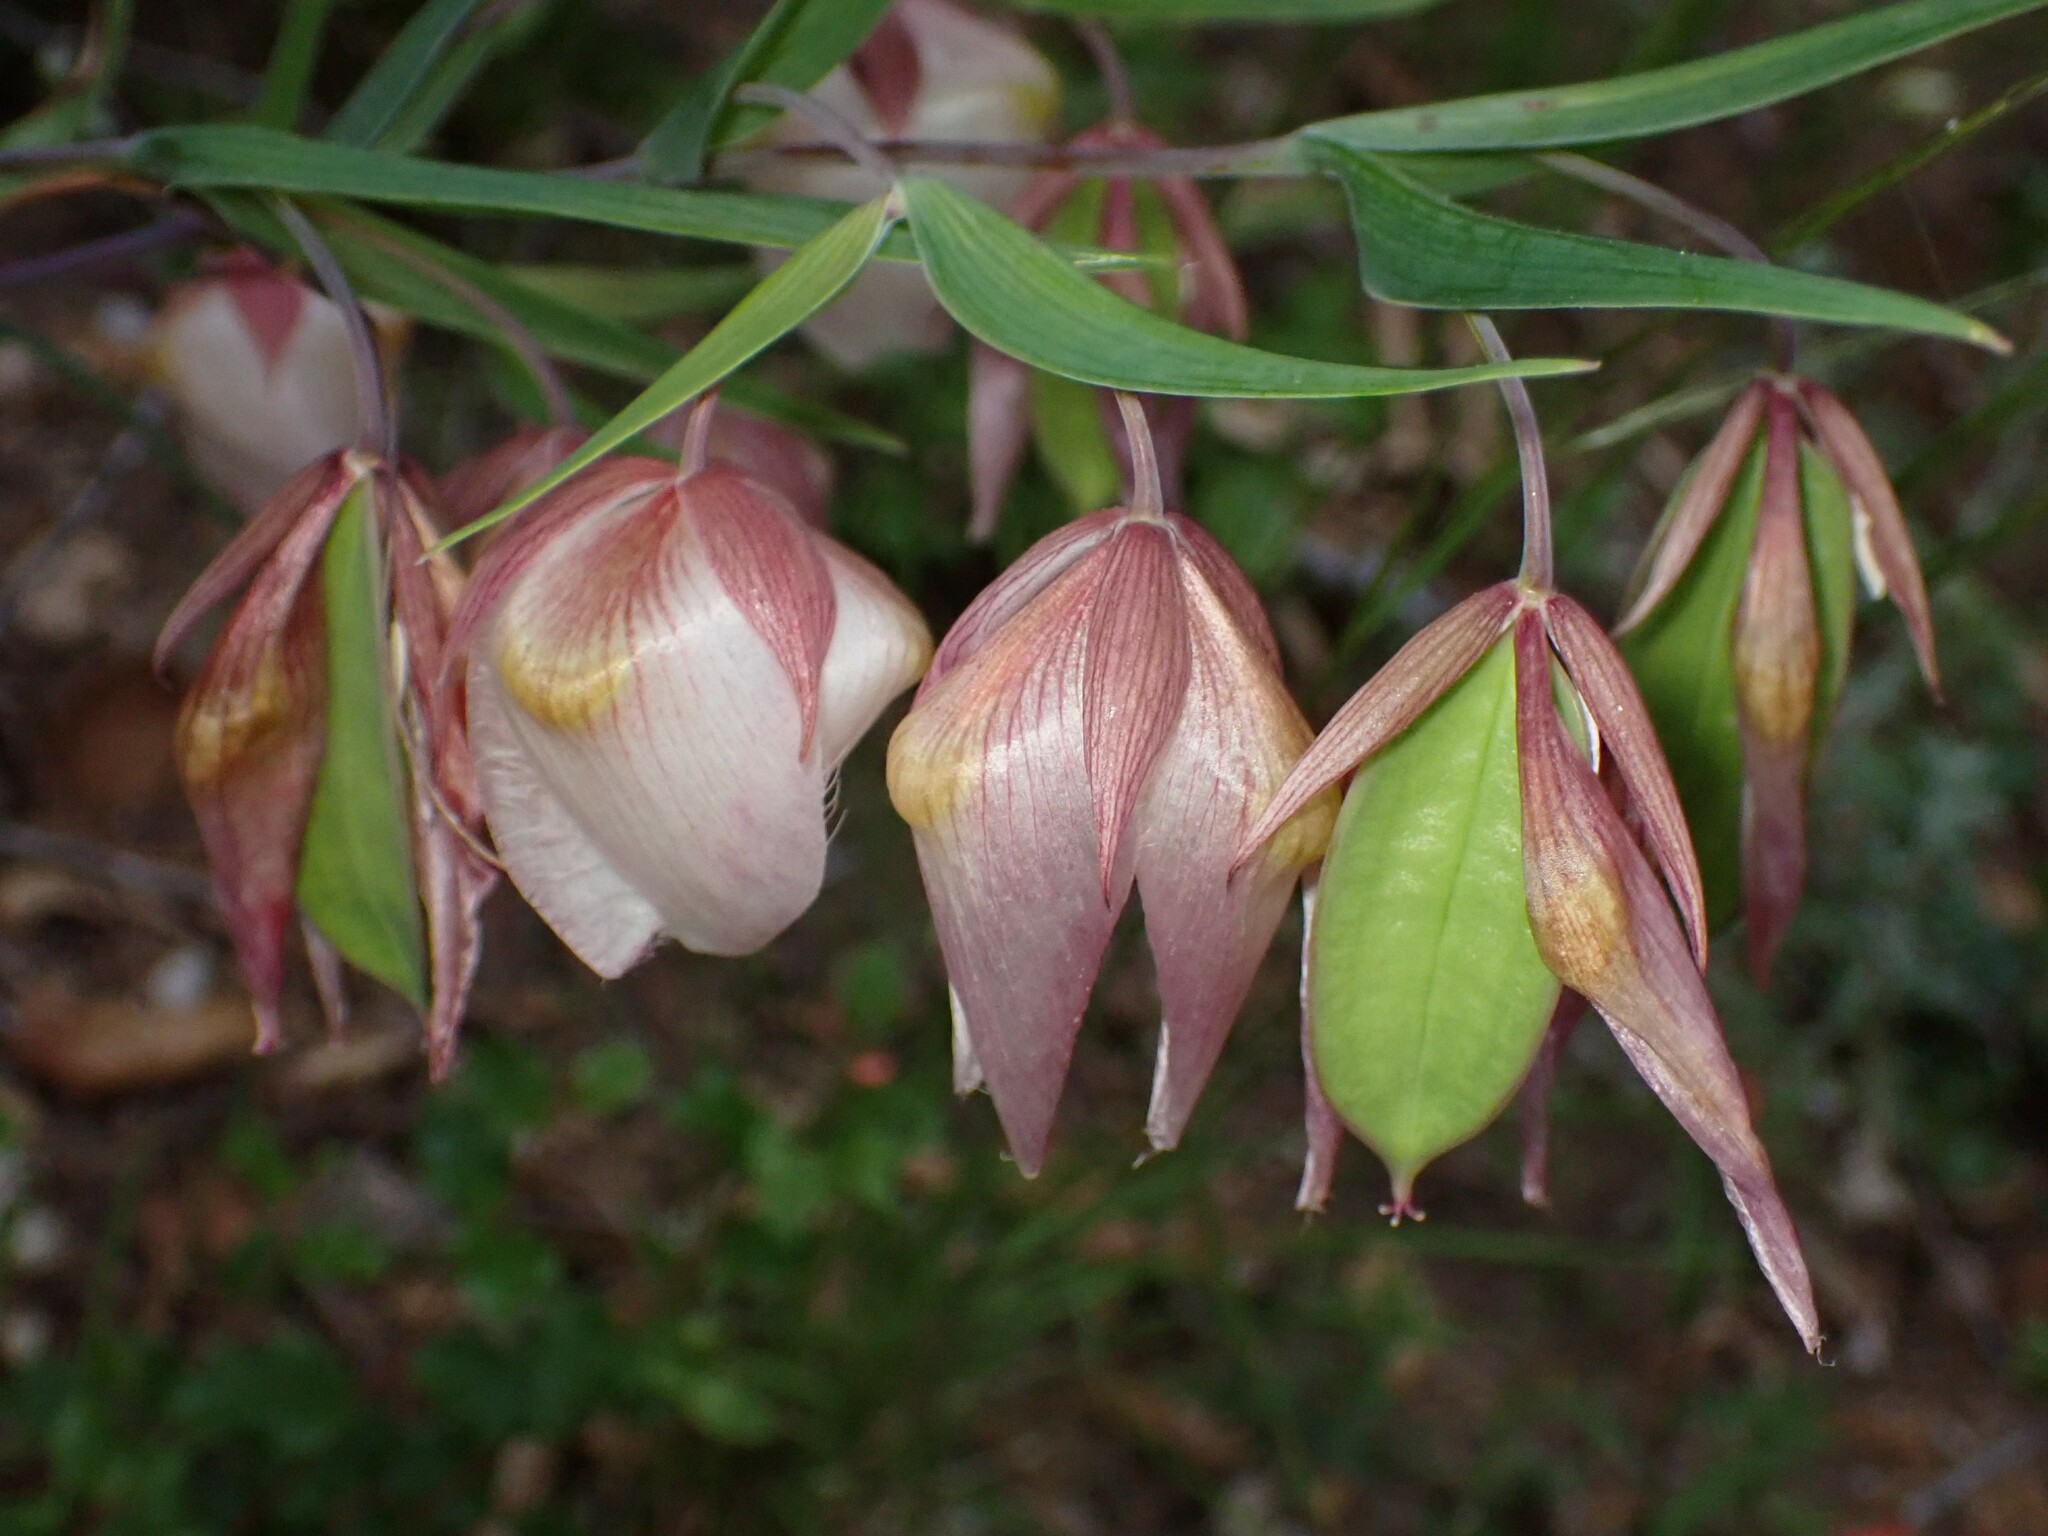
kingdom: Plantae
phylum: Tracheophyta
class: Liliopsida
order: Liliales
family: Liliaceae
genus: Calochortus
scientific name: Calochortus albus
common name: Fairy-lantern
